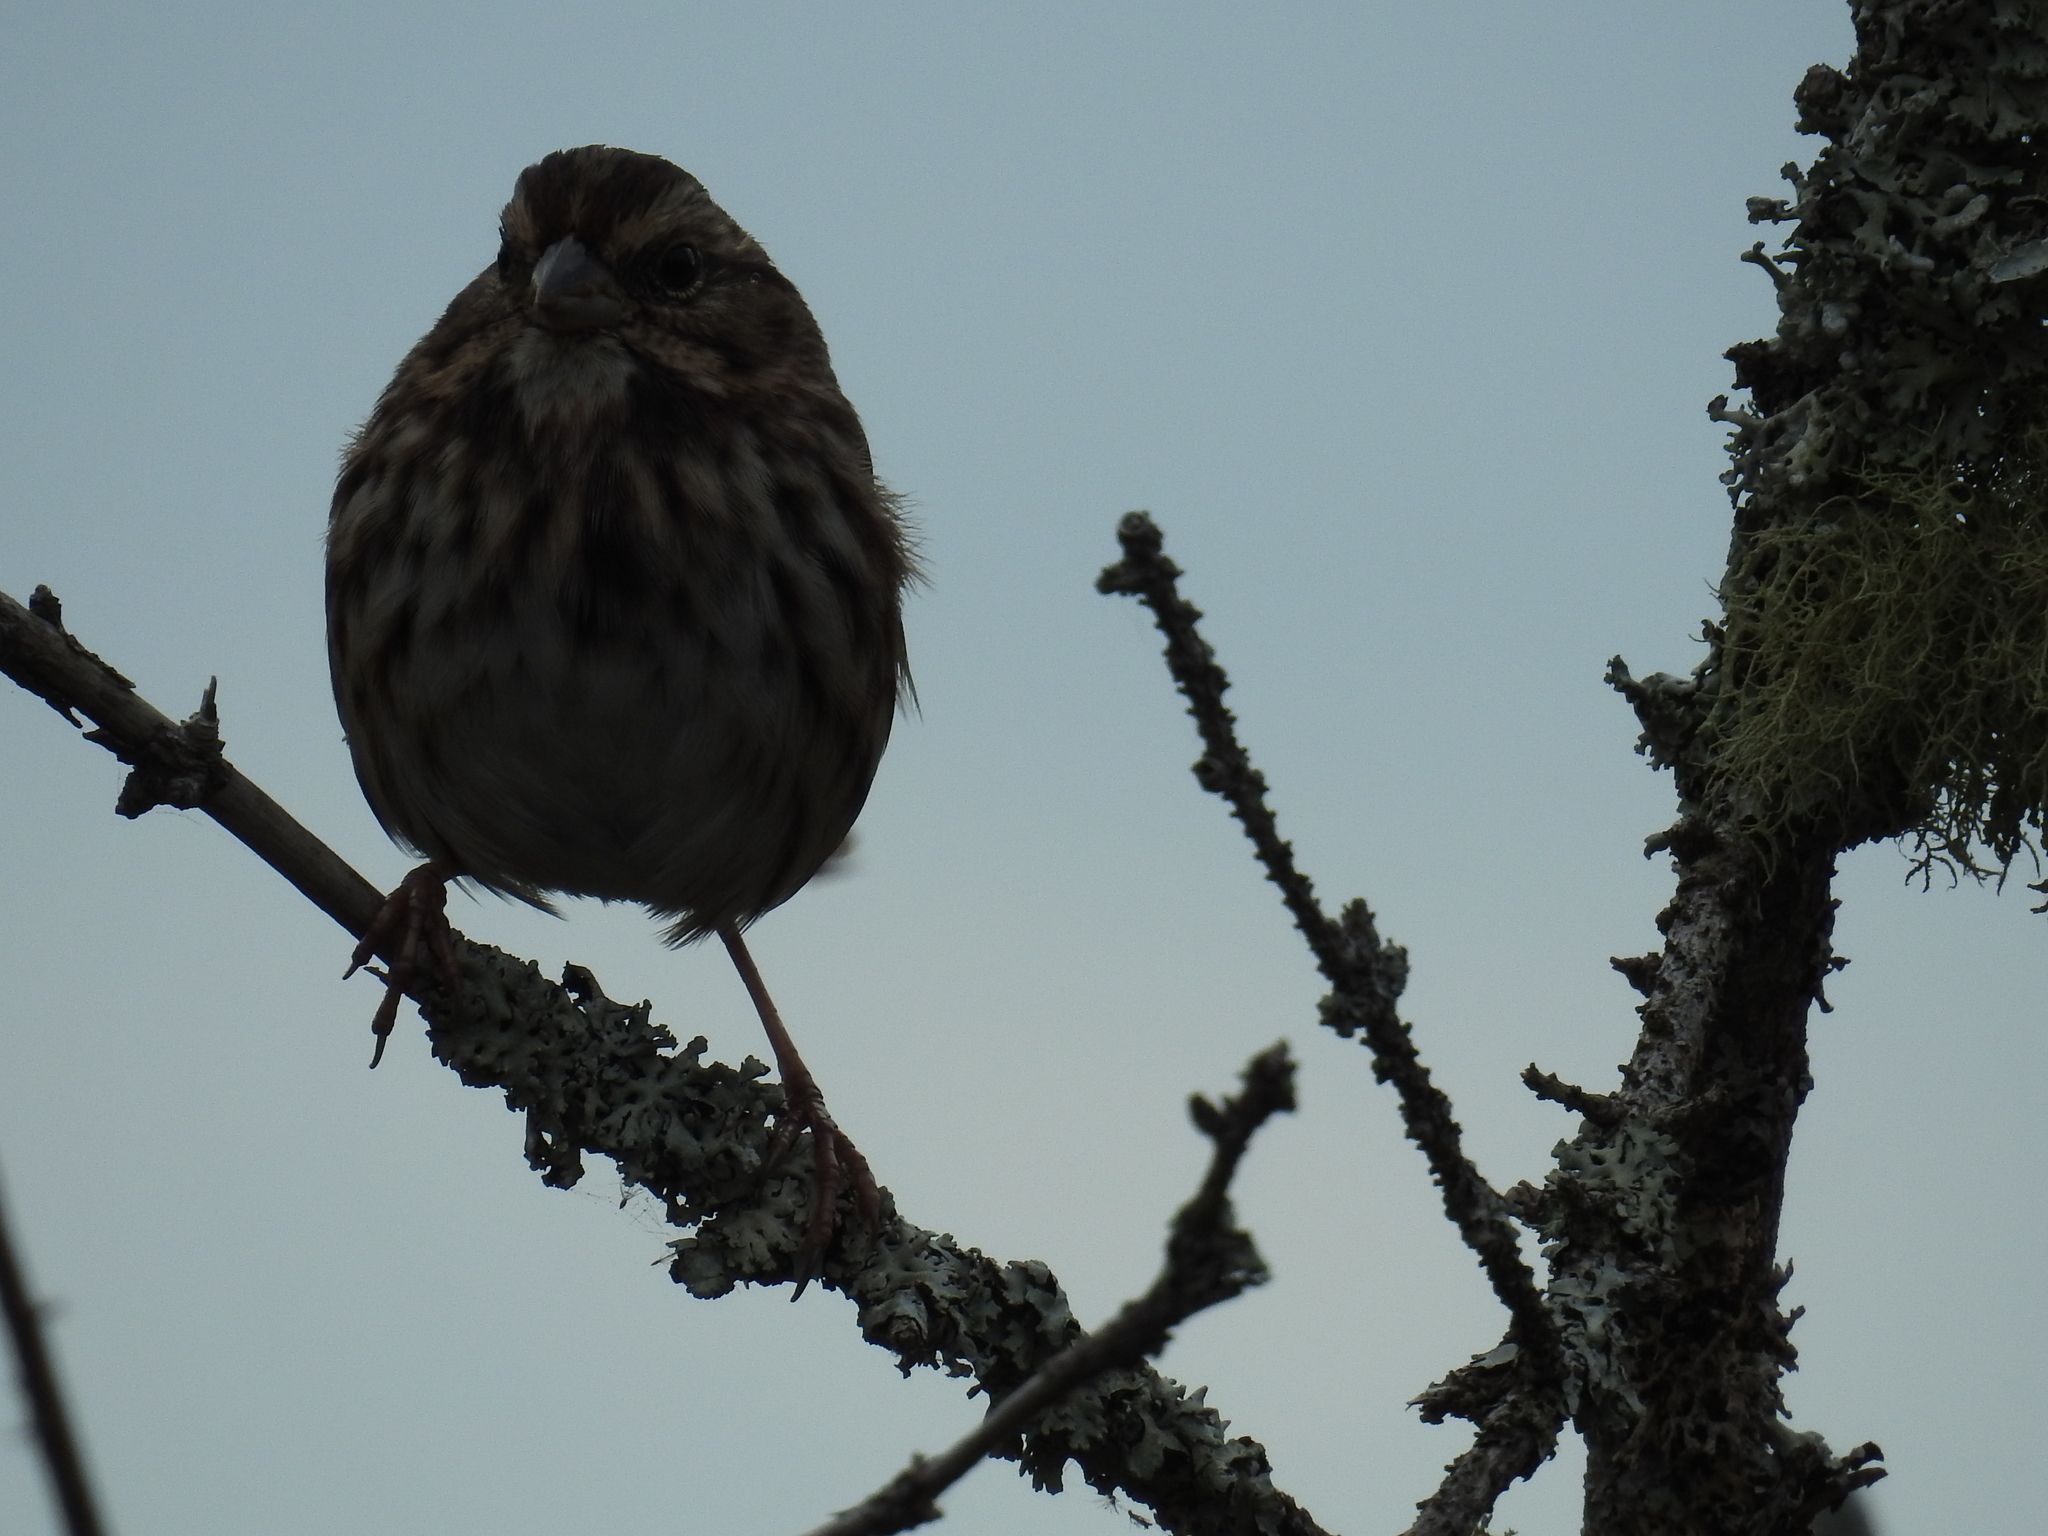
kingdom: Animalia
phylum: Chordata
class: Aves
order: Passeriformes
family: Passerellidae
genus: Melospiza
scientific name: Melospiza melodia
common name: Song sparrow
